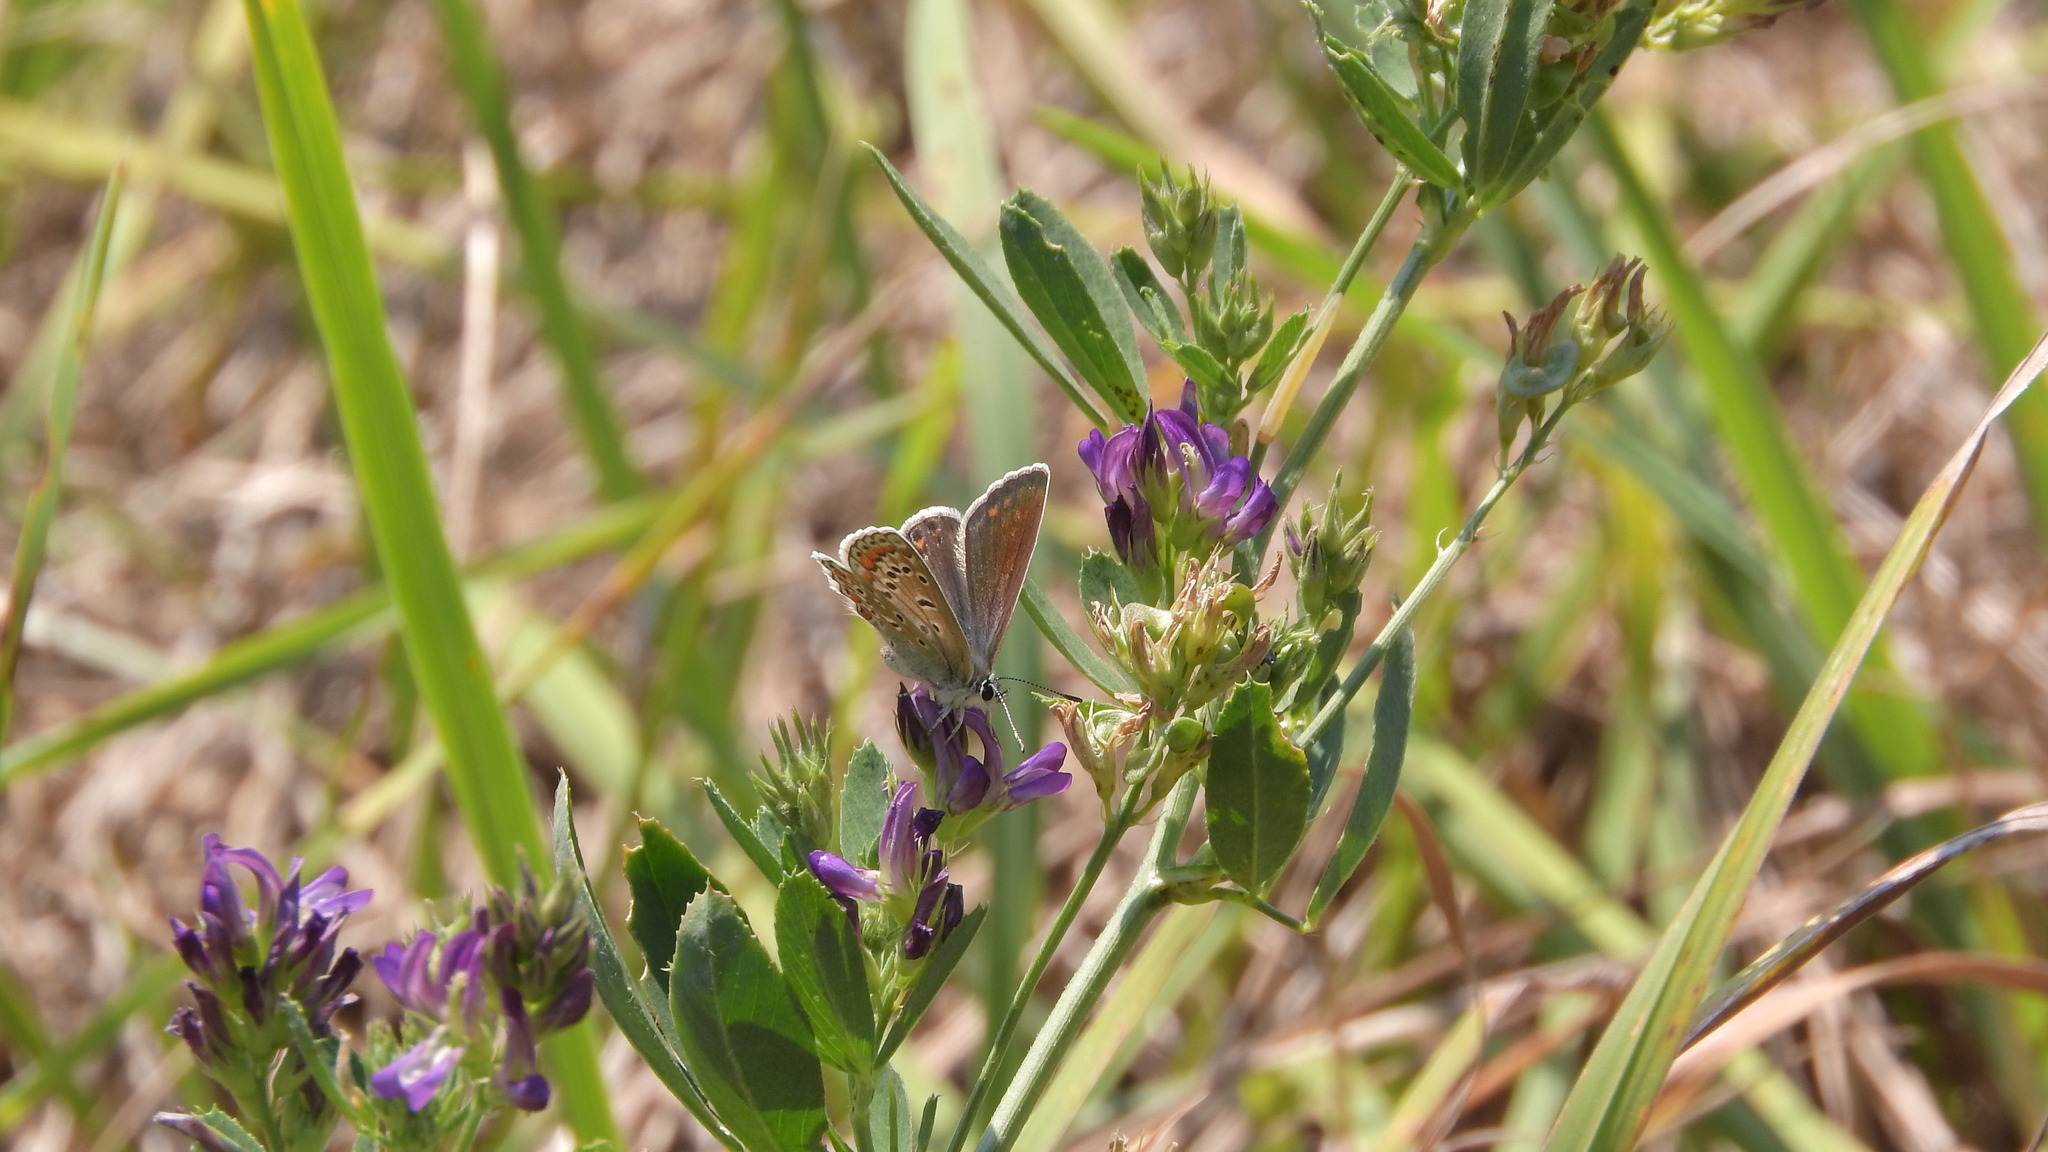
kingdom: Animalia
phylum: Arthropoda
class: Insecta
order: Lepidoptera
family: Lycaenidae
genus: Polyommatus
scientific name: Polyommatus icarus
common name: Common blue
